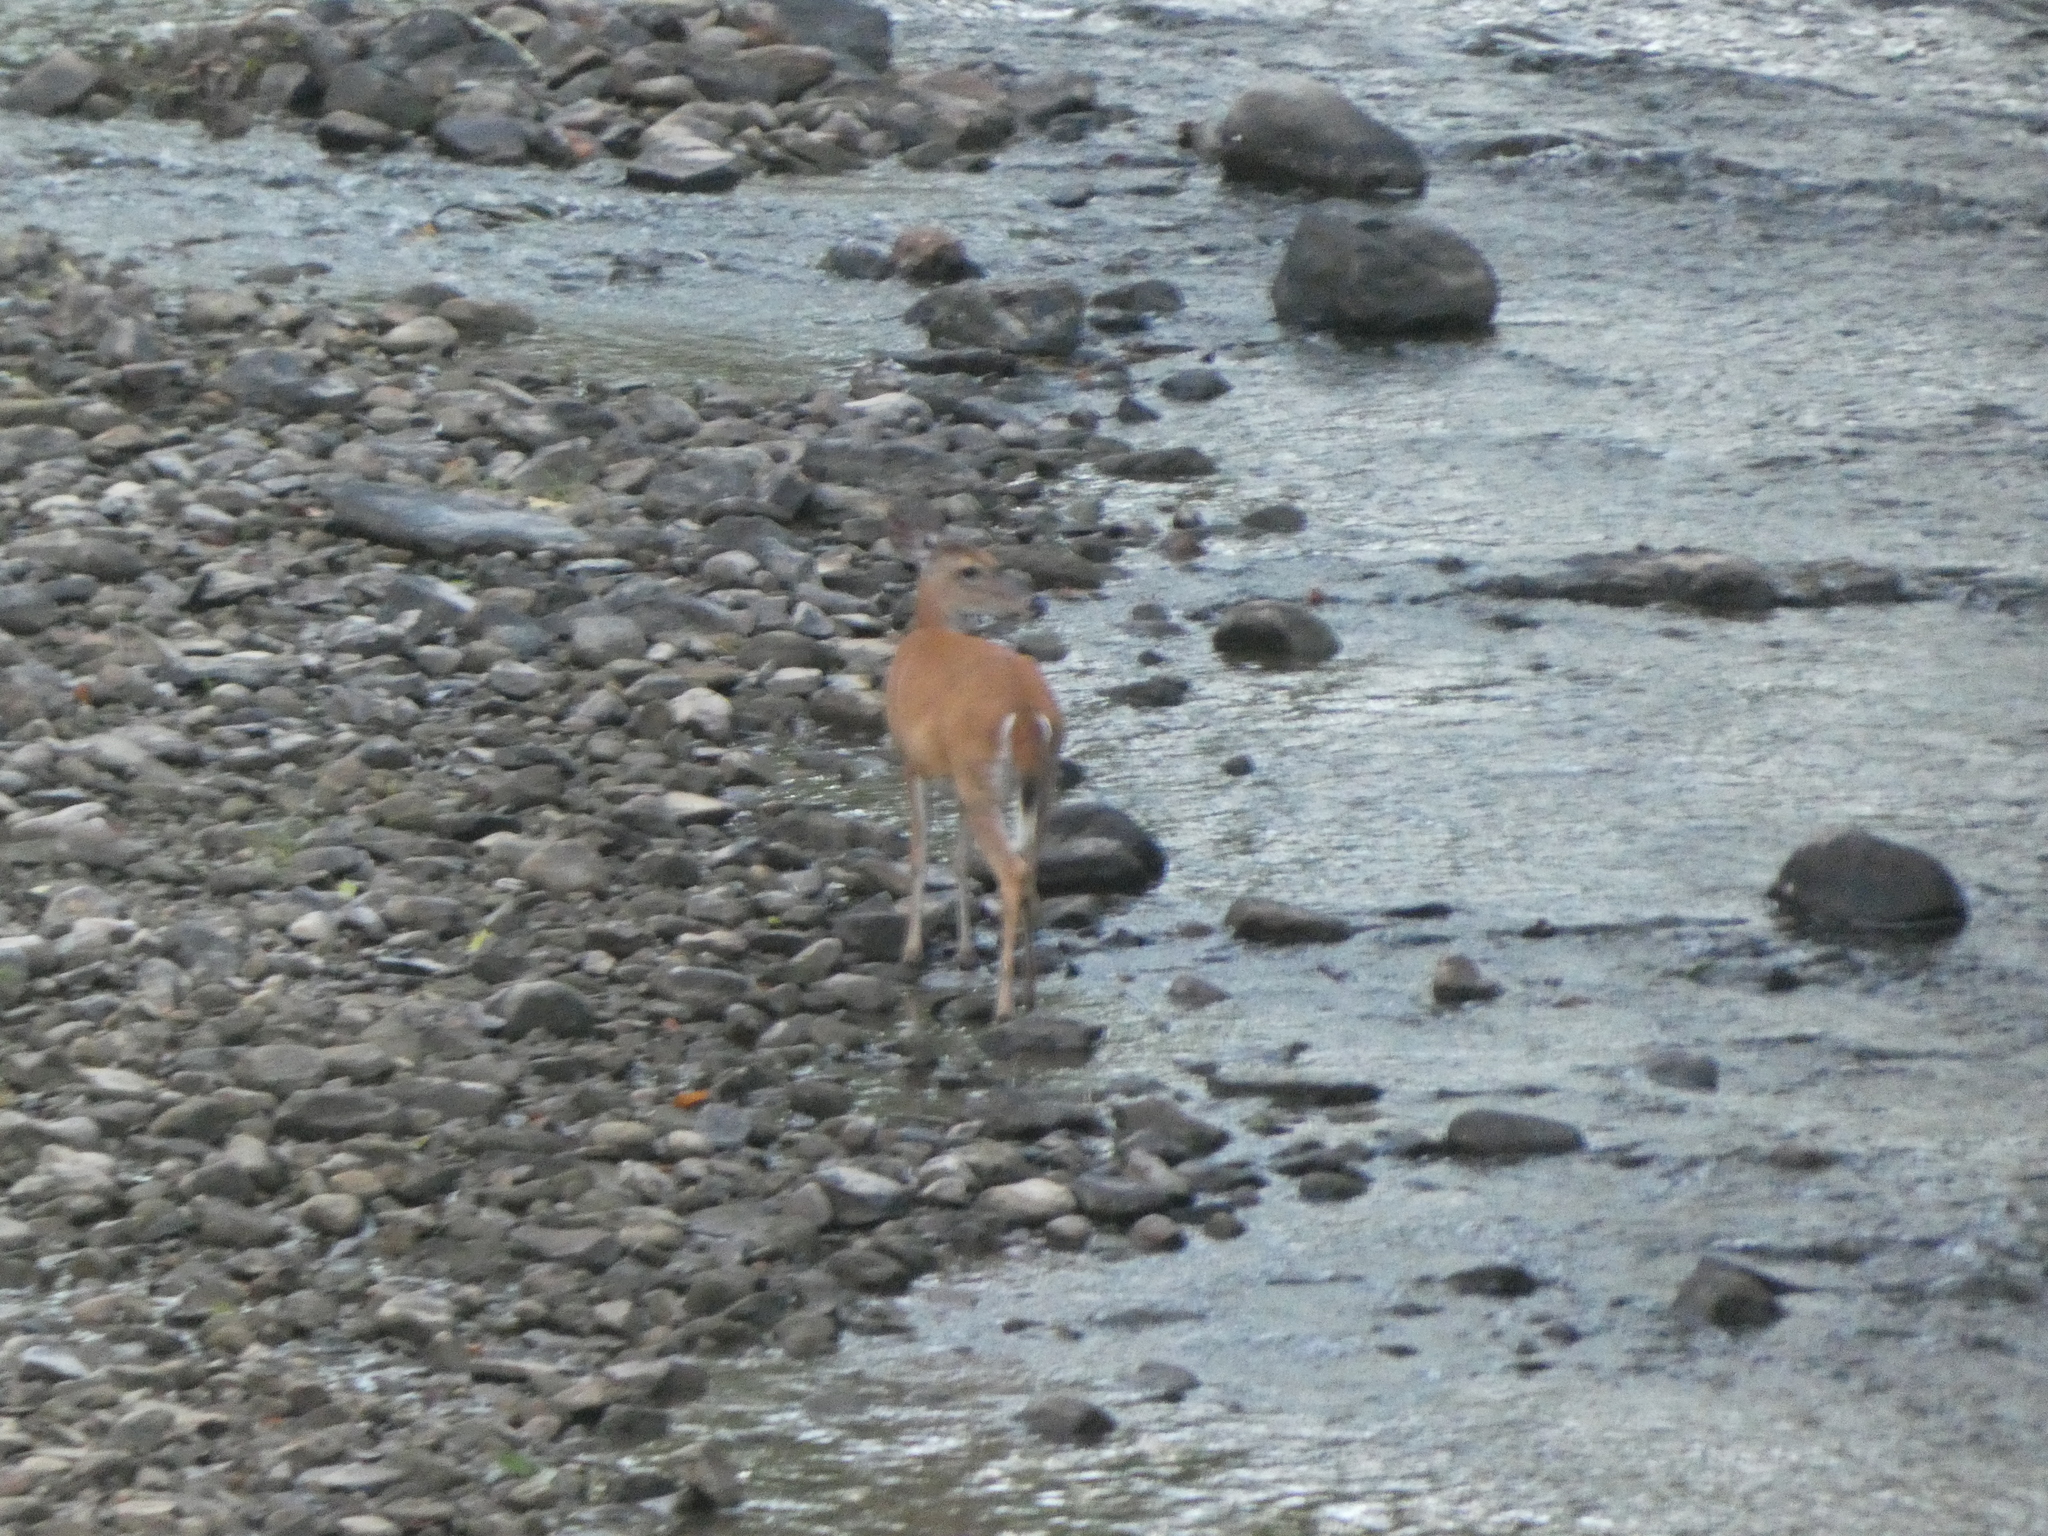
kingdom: Animalia
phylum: Chordata
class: Mammalia
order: Artiodactyla
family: Cervidae
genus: Odocoileus
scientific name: Odocoileus virginianus
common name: White-tailed deer
